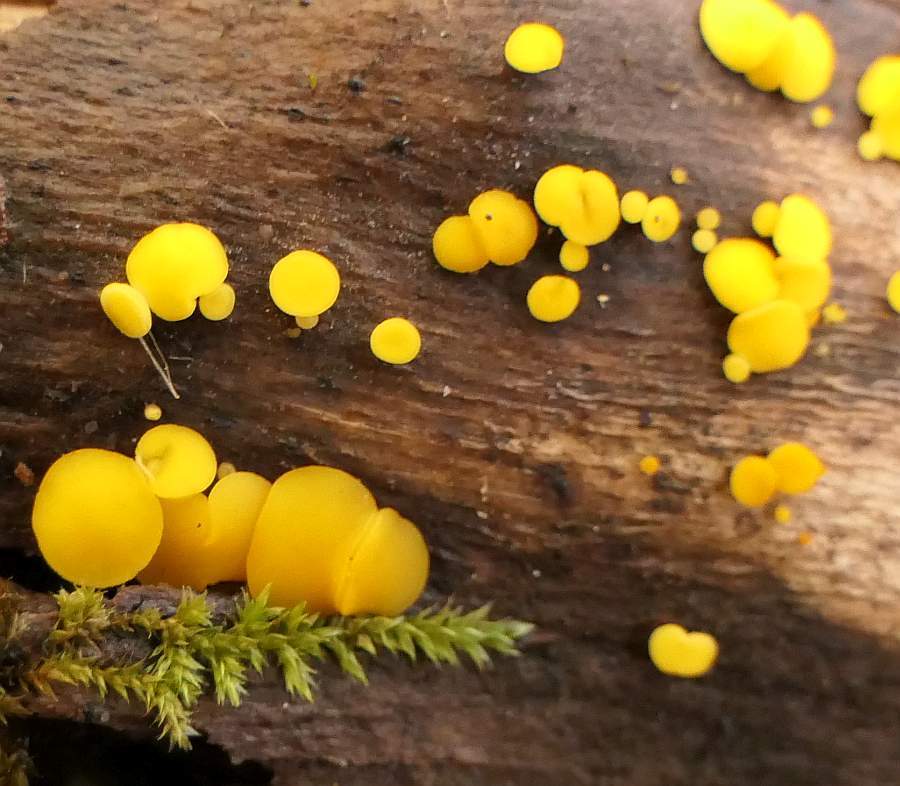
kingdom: Fungi
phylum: Ascomycota
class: Leotiomycetes
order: Helotiales
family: Pezizellaceae
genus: Calycina
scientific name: Calycina citrina
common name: Yellow fairy cups
